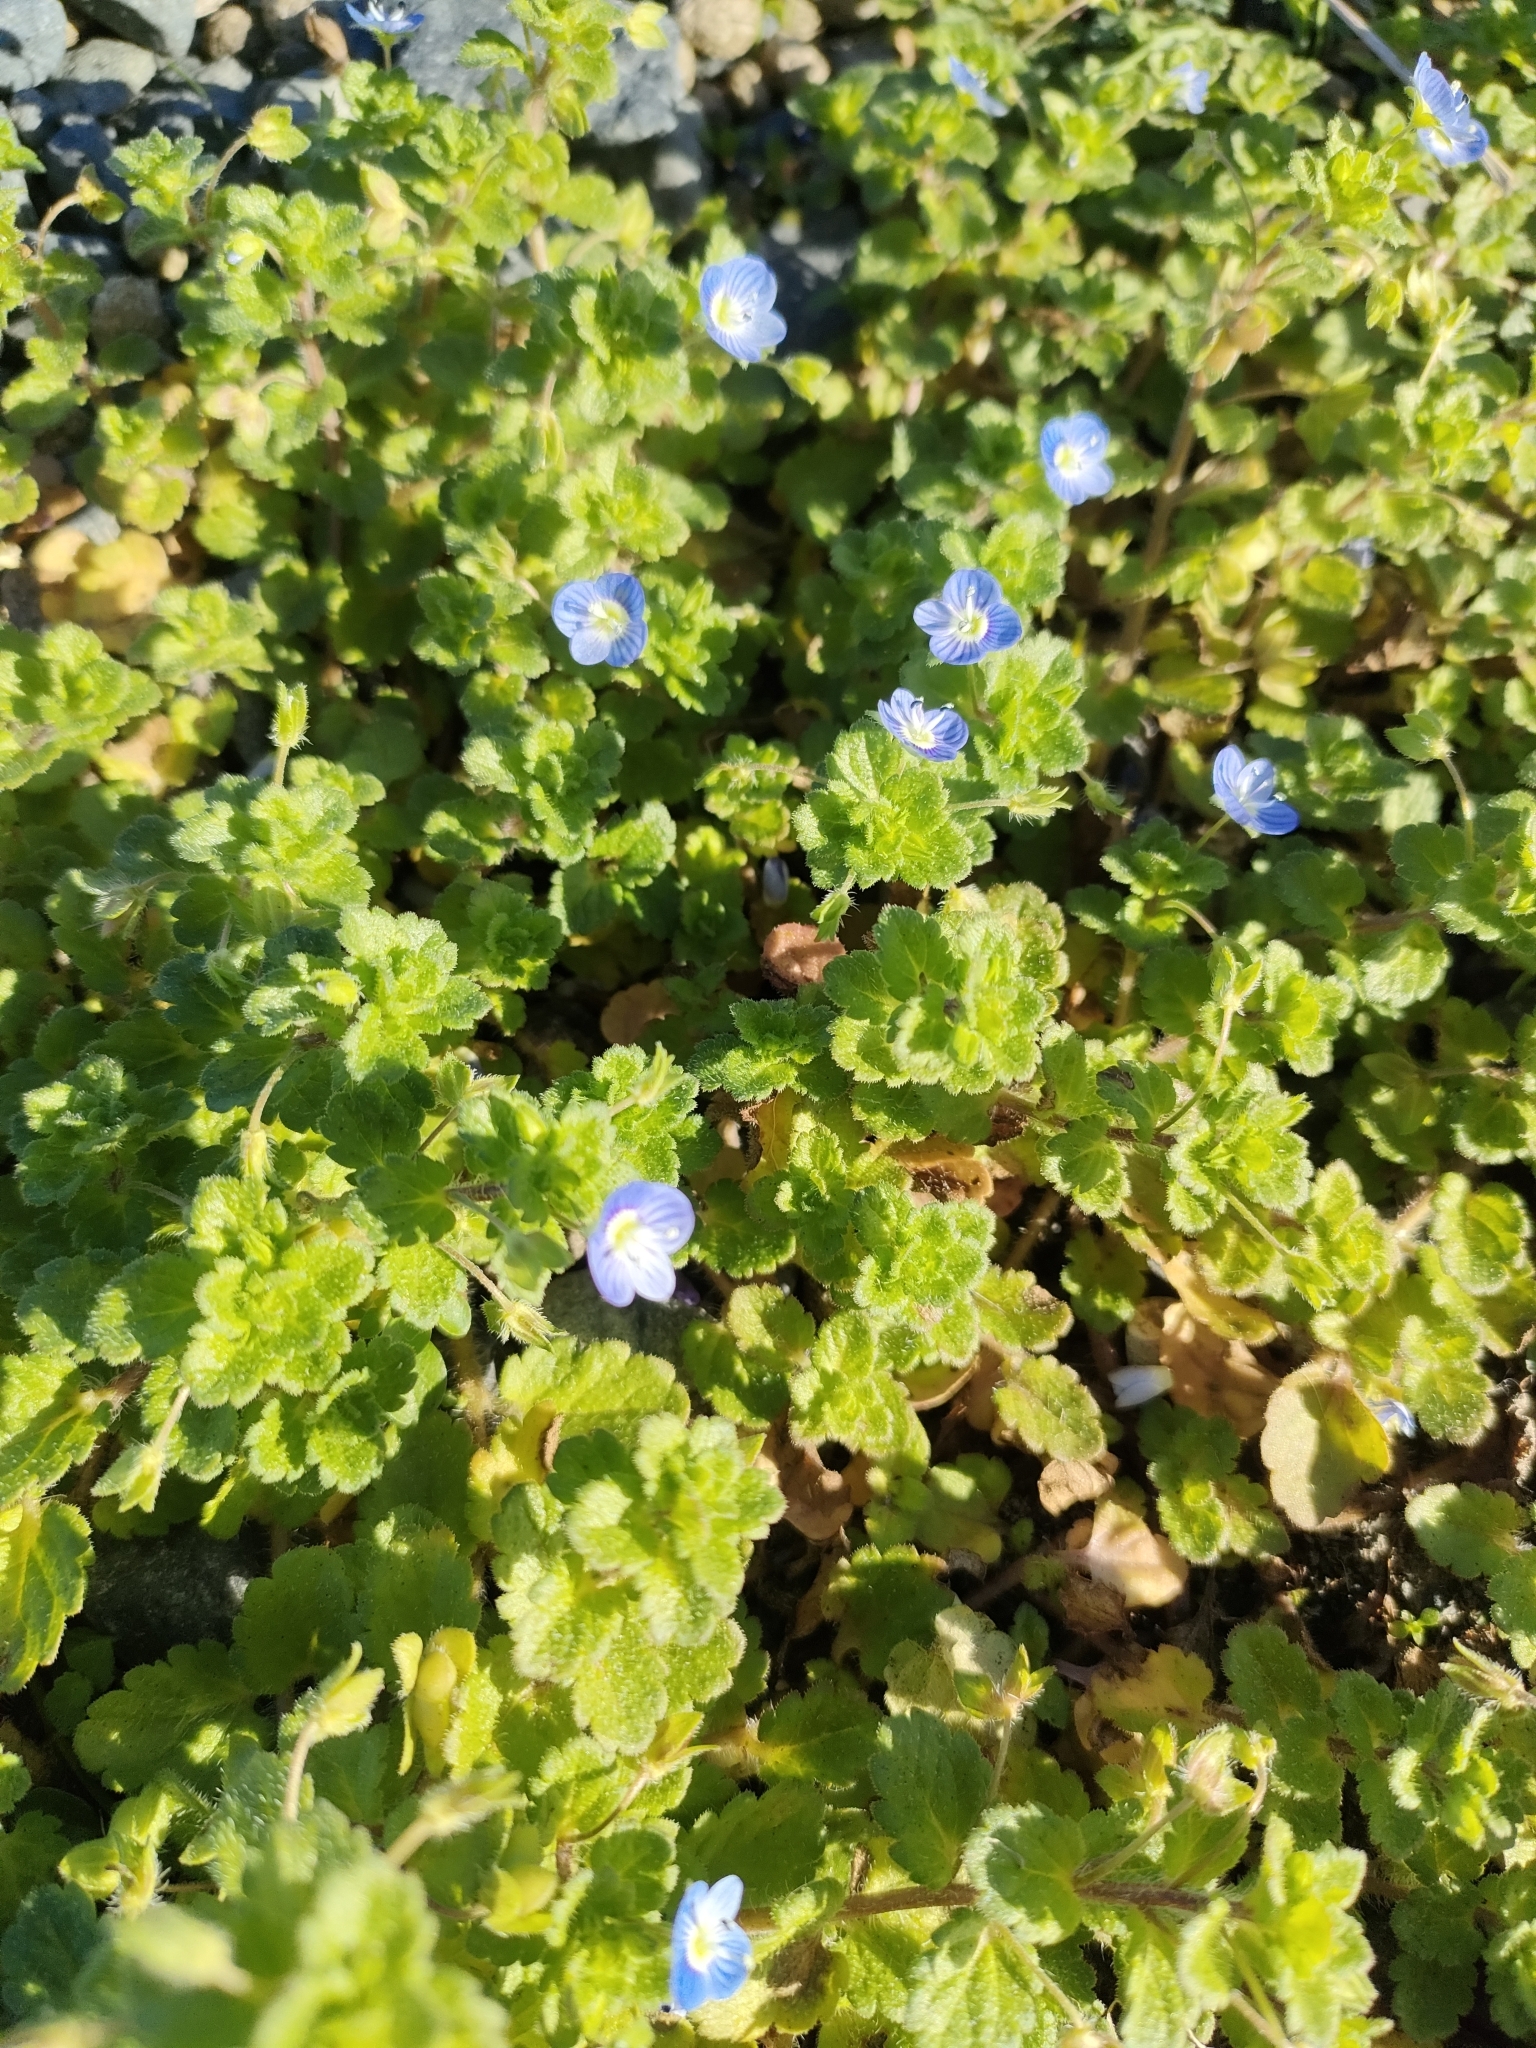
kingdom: Plantae
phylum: Tracheophyta
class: Magnoliopsida
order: Lamiales
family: Plantaginaceae
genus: Veronica
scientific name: Veronica persica
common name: Common field-speedwell
